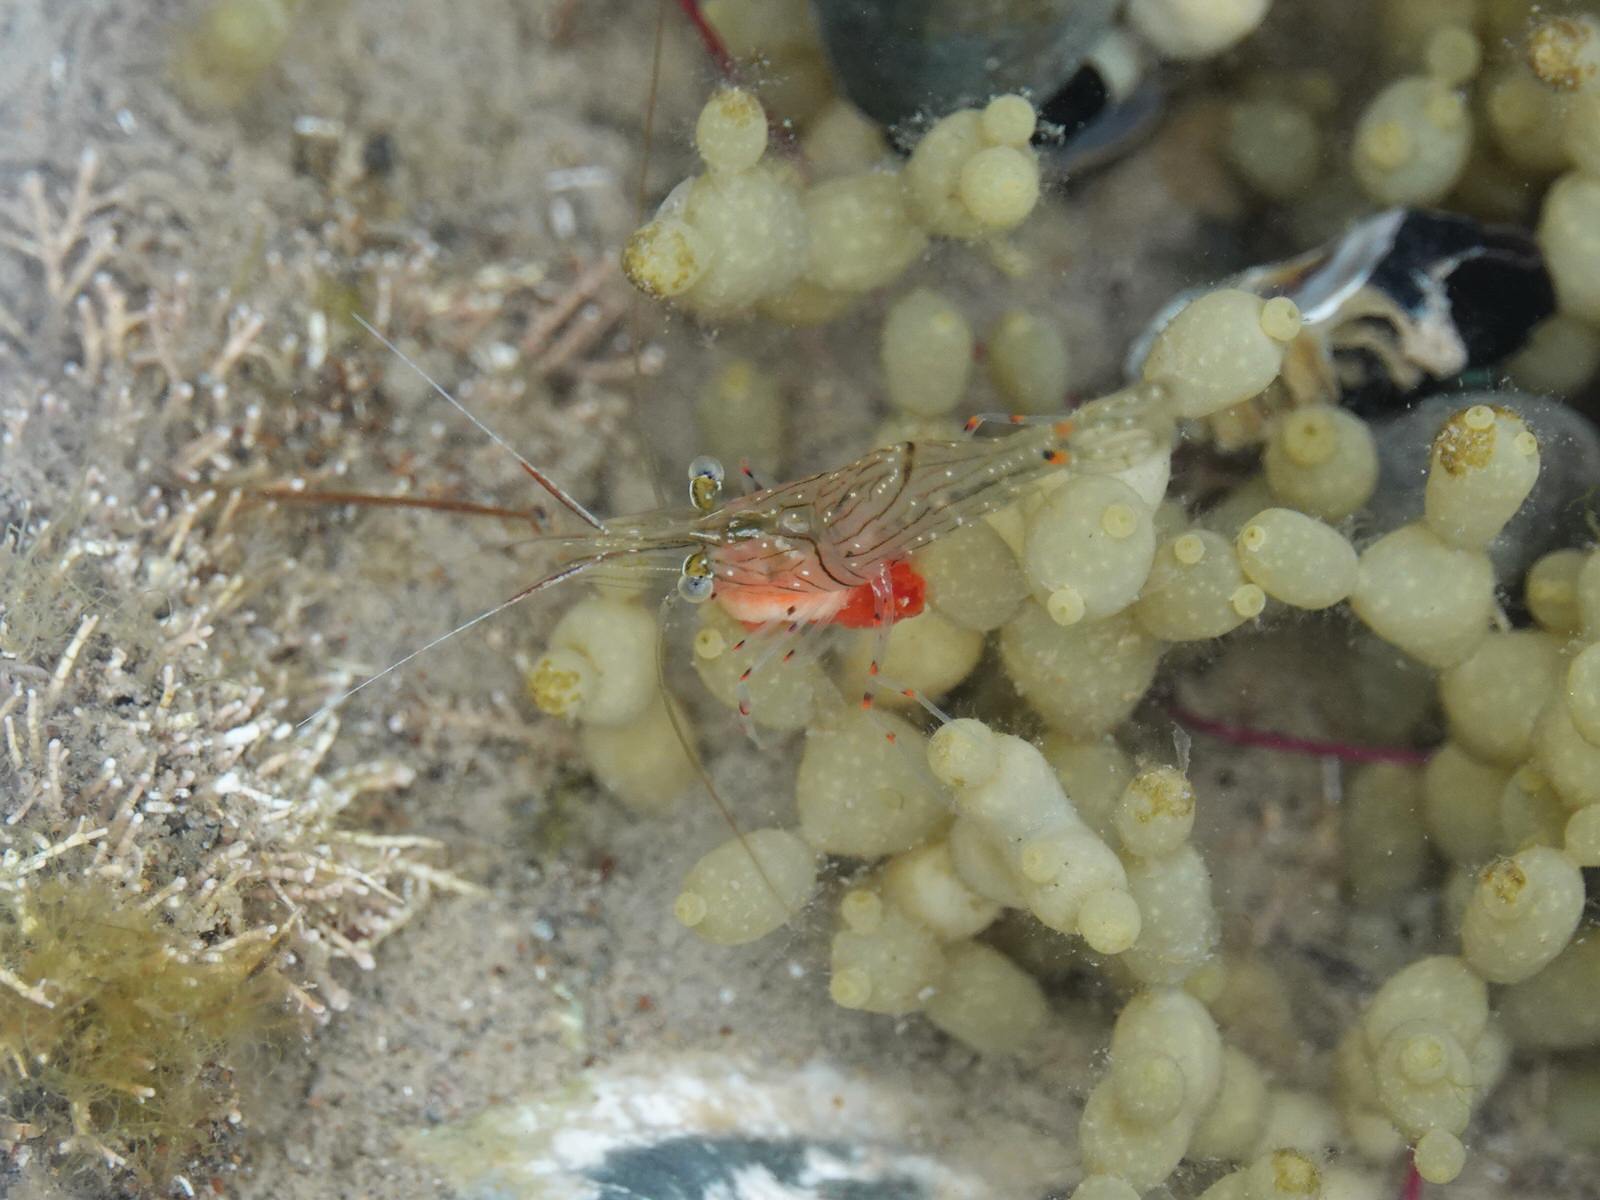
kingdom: Animalia
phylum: Arthropoda
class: Malacostraca
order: Decapoda
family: Palaemonidae
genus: Palaemon
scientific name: Palaemon affinis
